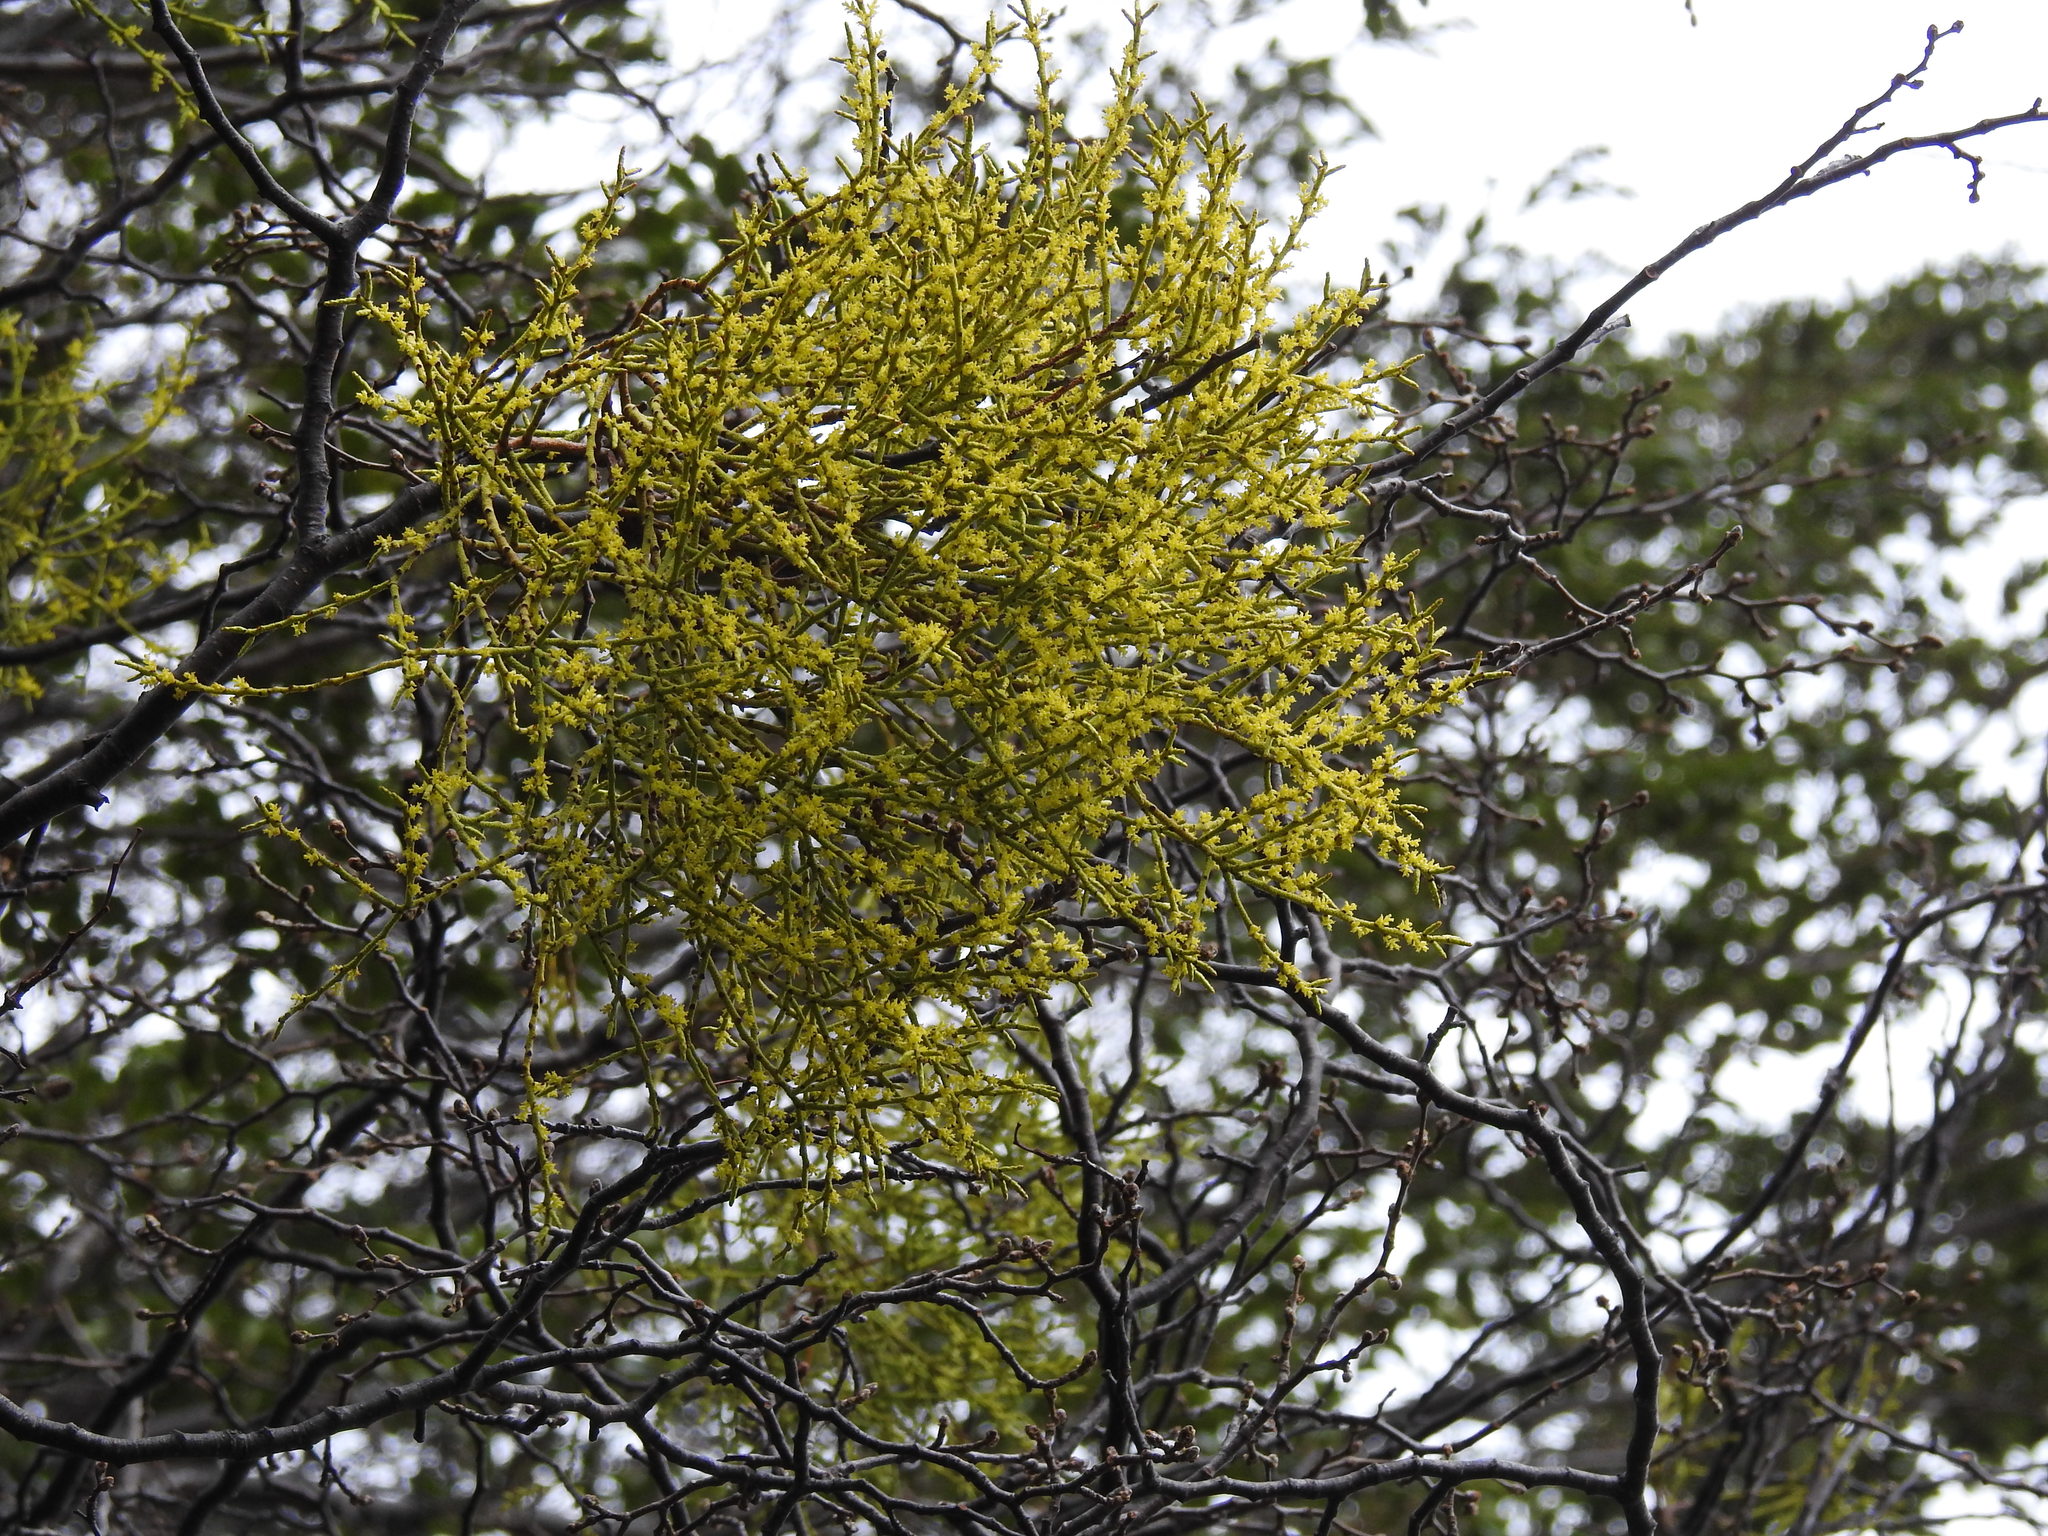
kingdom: Plantae
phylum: Tracheophyta
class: Magnoliopsida
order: Santalales
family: Misodendraceae
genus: Misodendrum
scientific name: Misodendrum punctulatum
